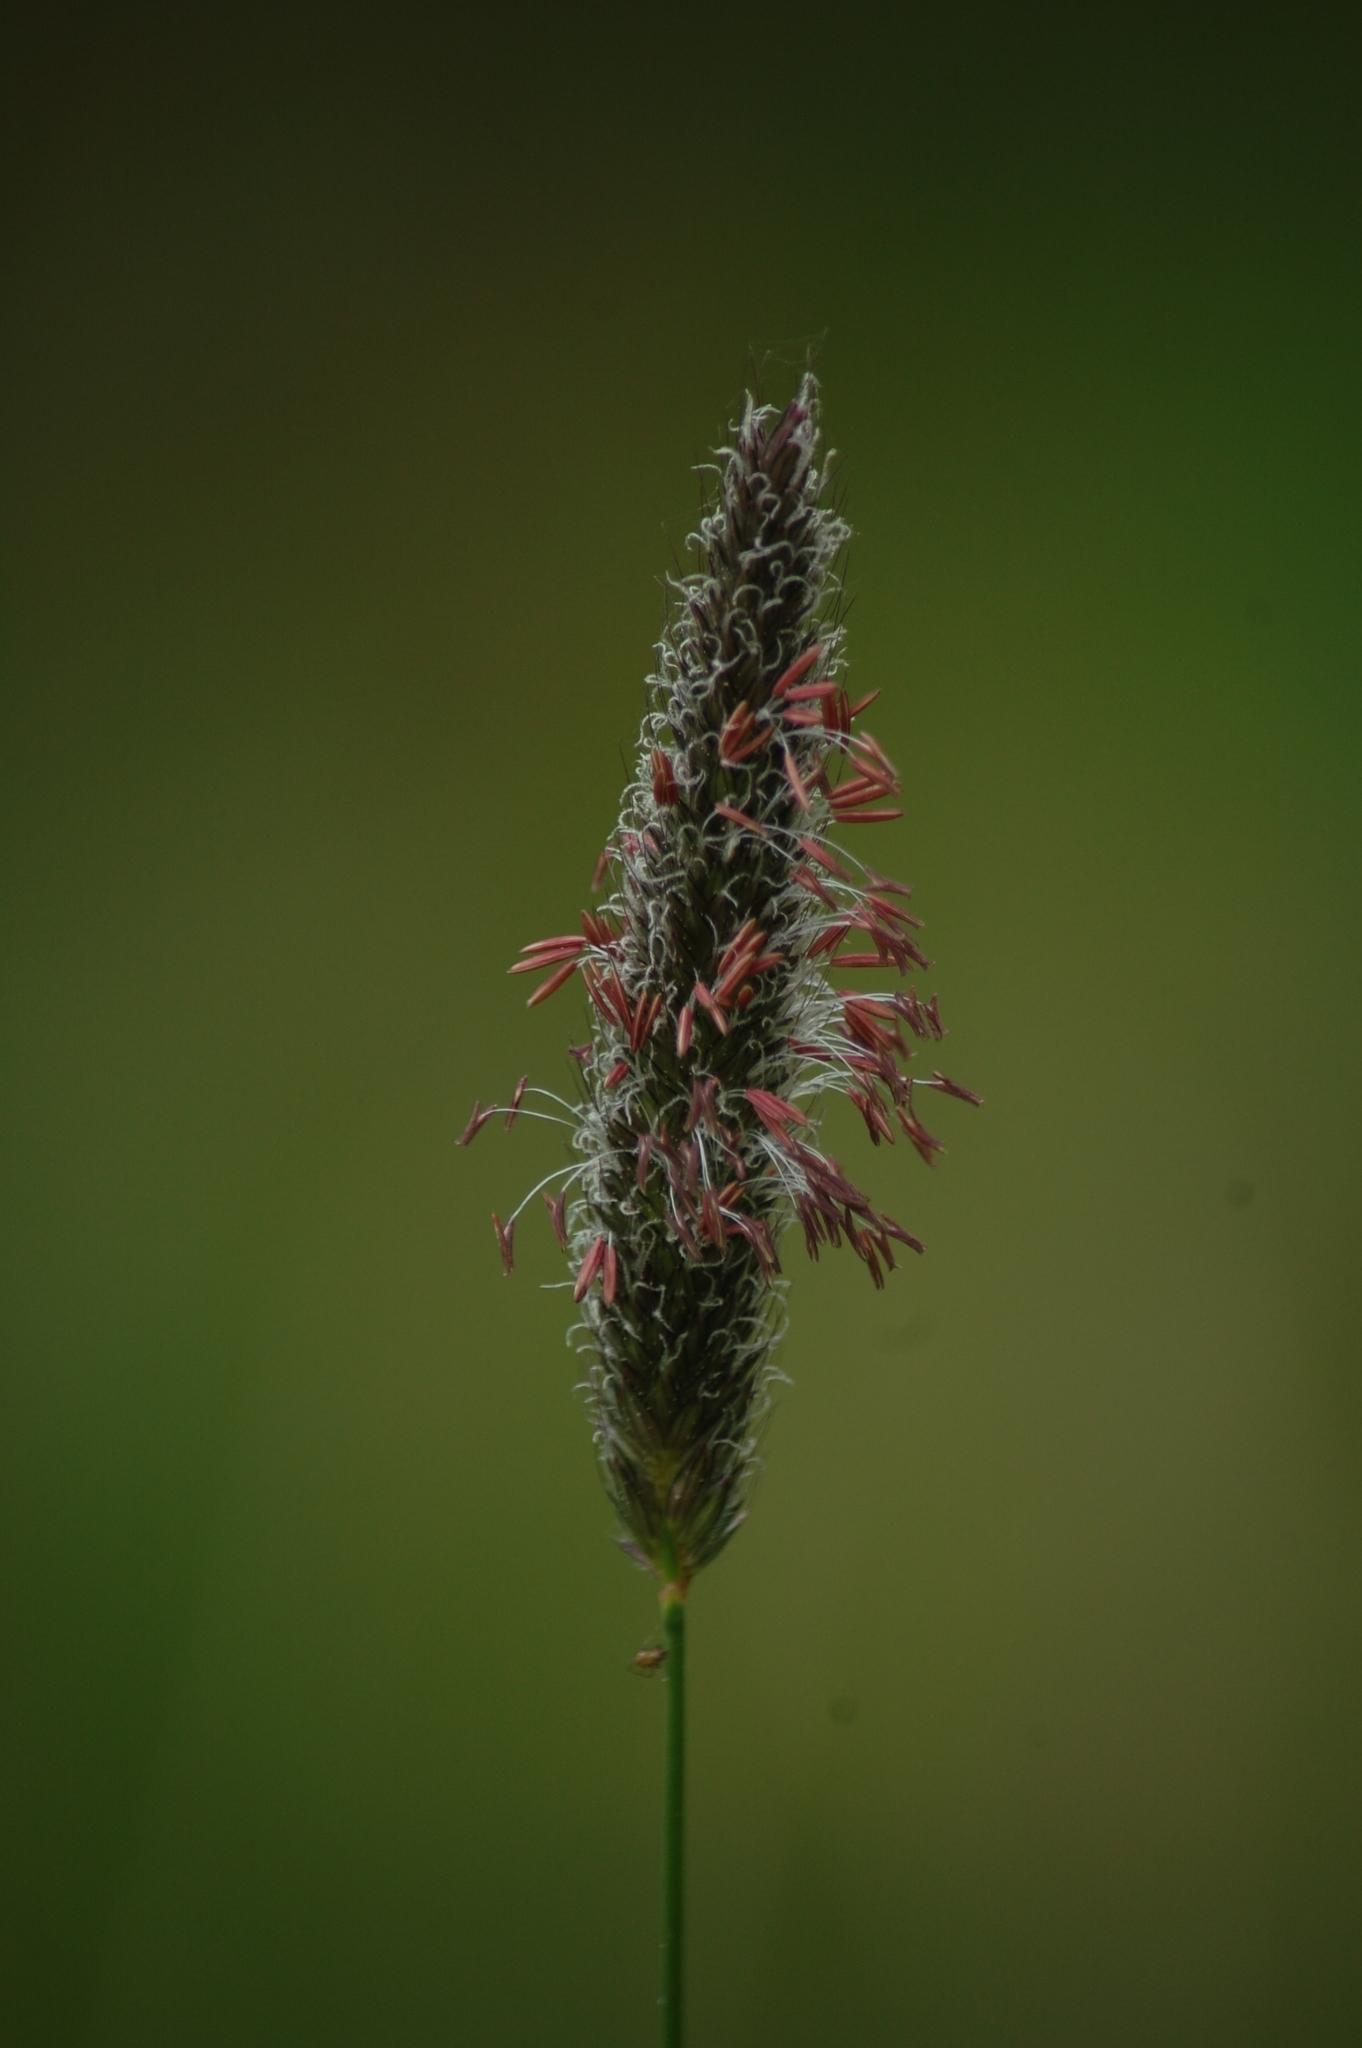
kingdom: Plantae
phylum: Tracheophyta
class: Liliopsida
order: Poales
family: Poaceae
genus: Alopecurus
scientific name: Alopecurus pratensis
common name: Meadow foxtail
